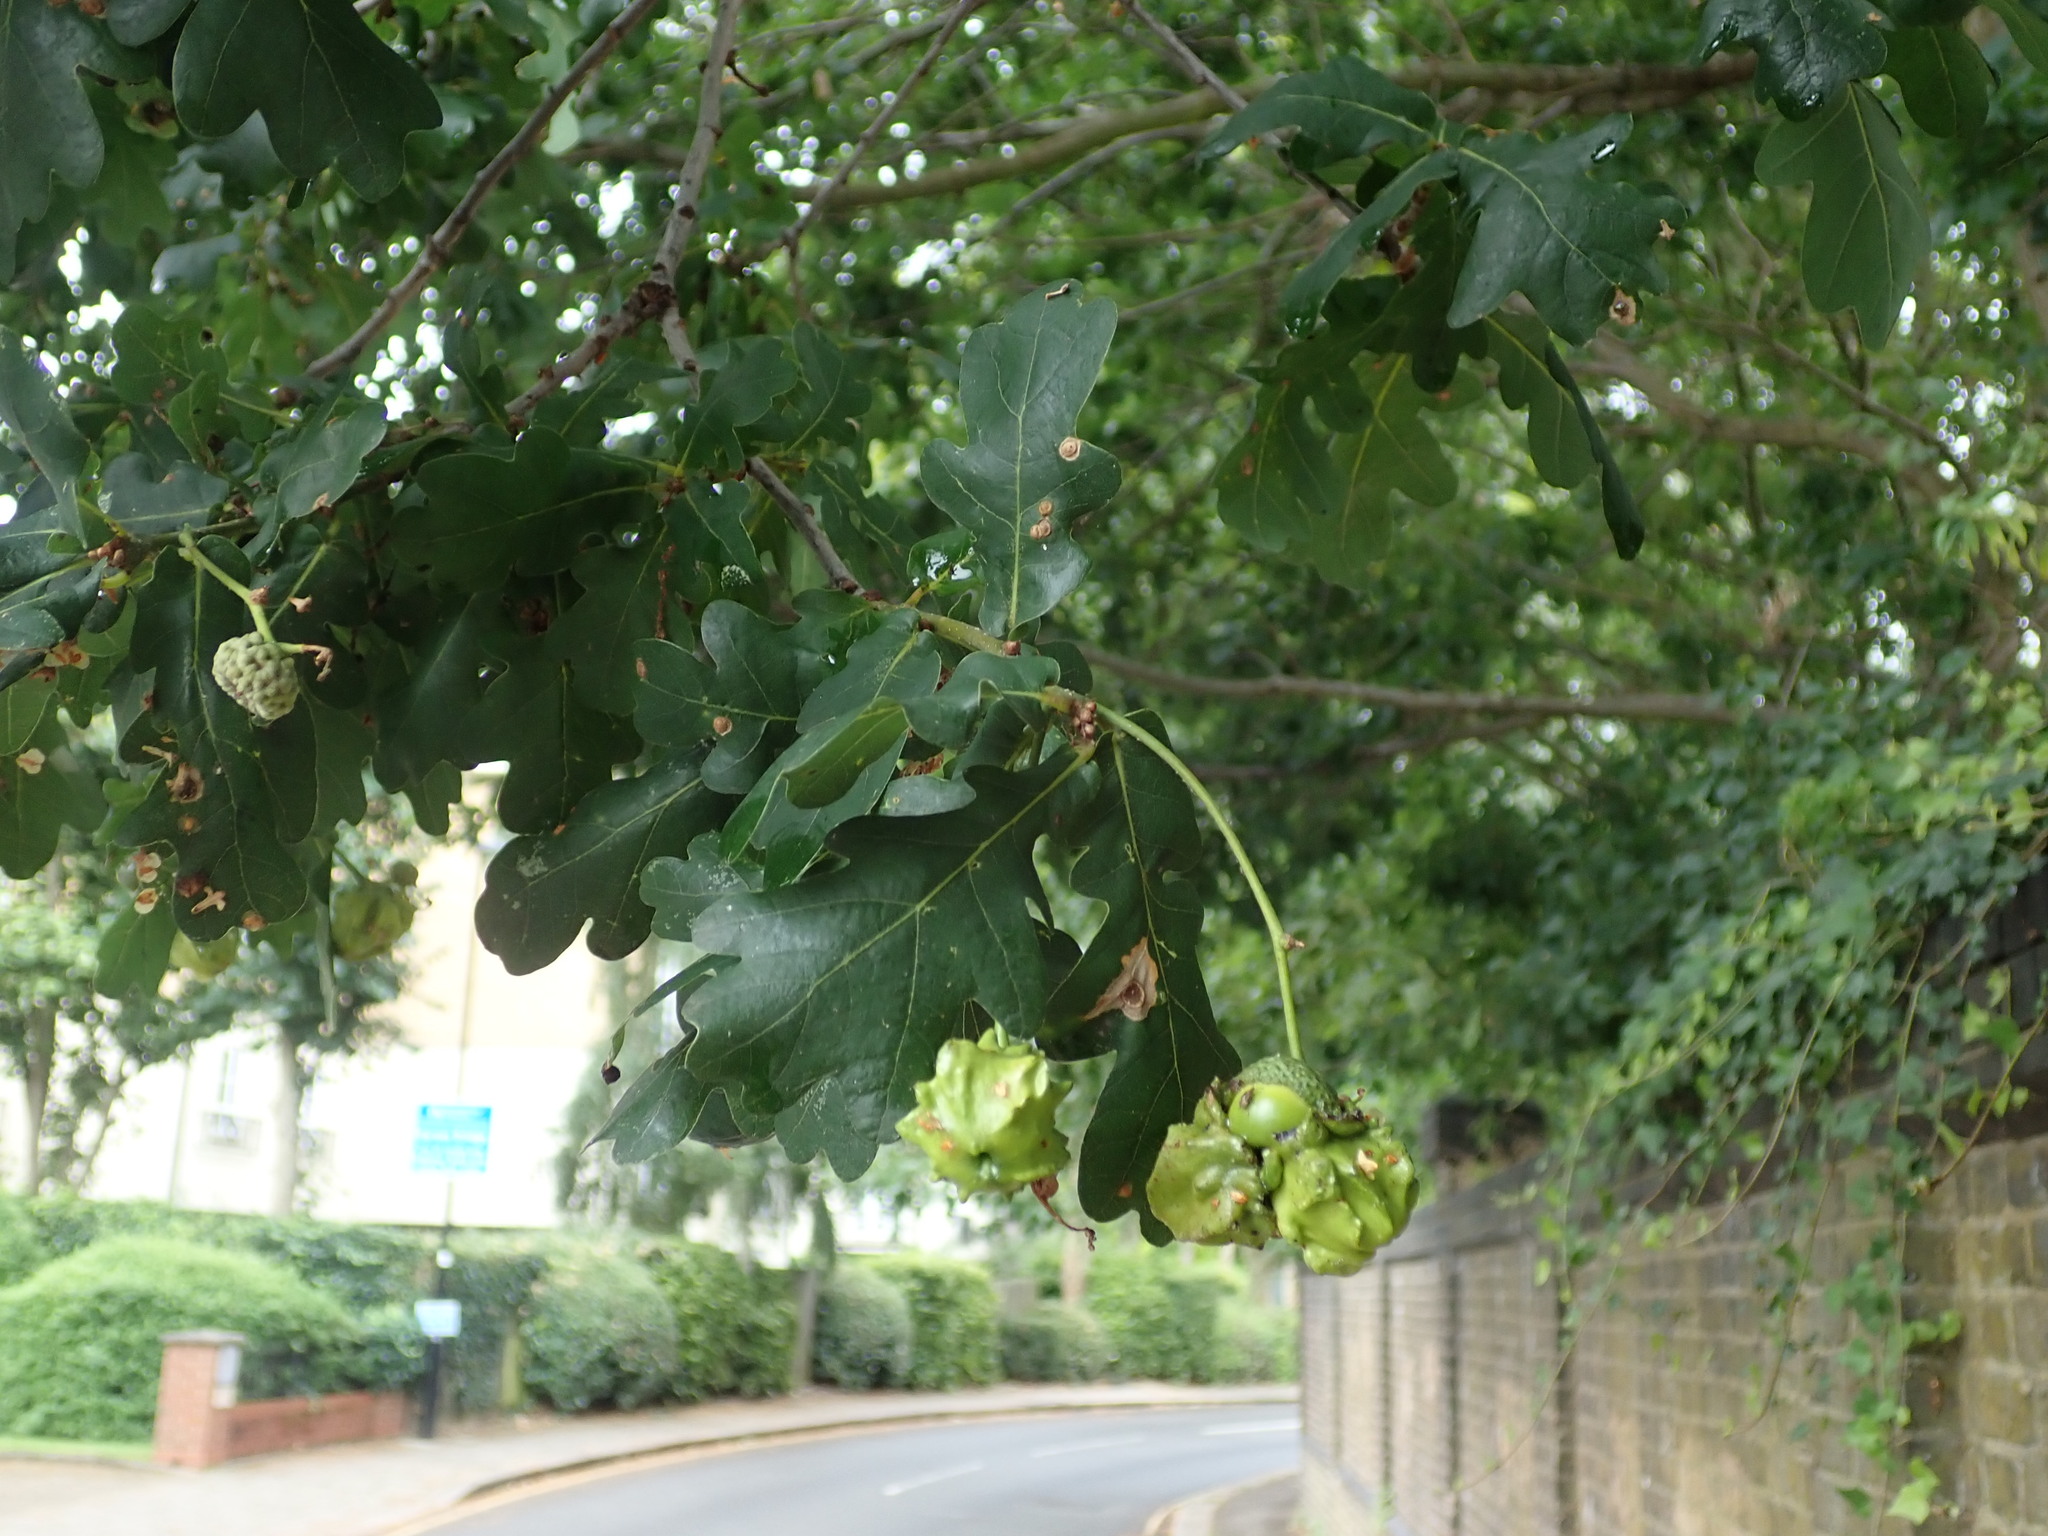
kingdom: Animalia
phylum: Arthropoda
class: Insecta
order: Hymenoptera
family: Cynipidae
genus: Andricus
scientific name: Andricus quercuscalicis
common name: Knopper gall
